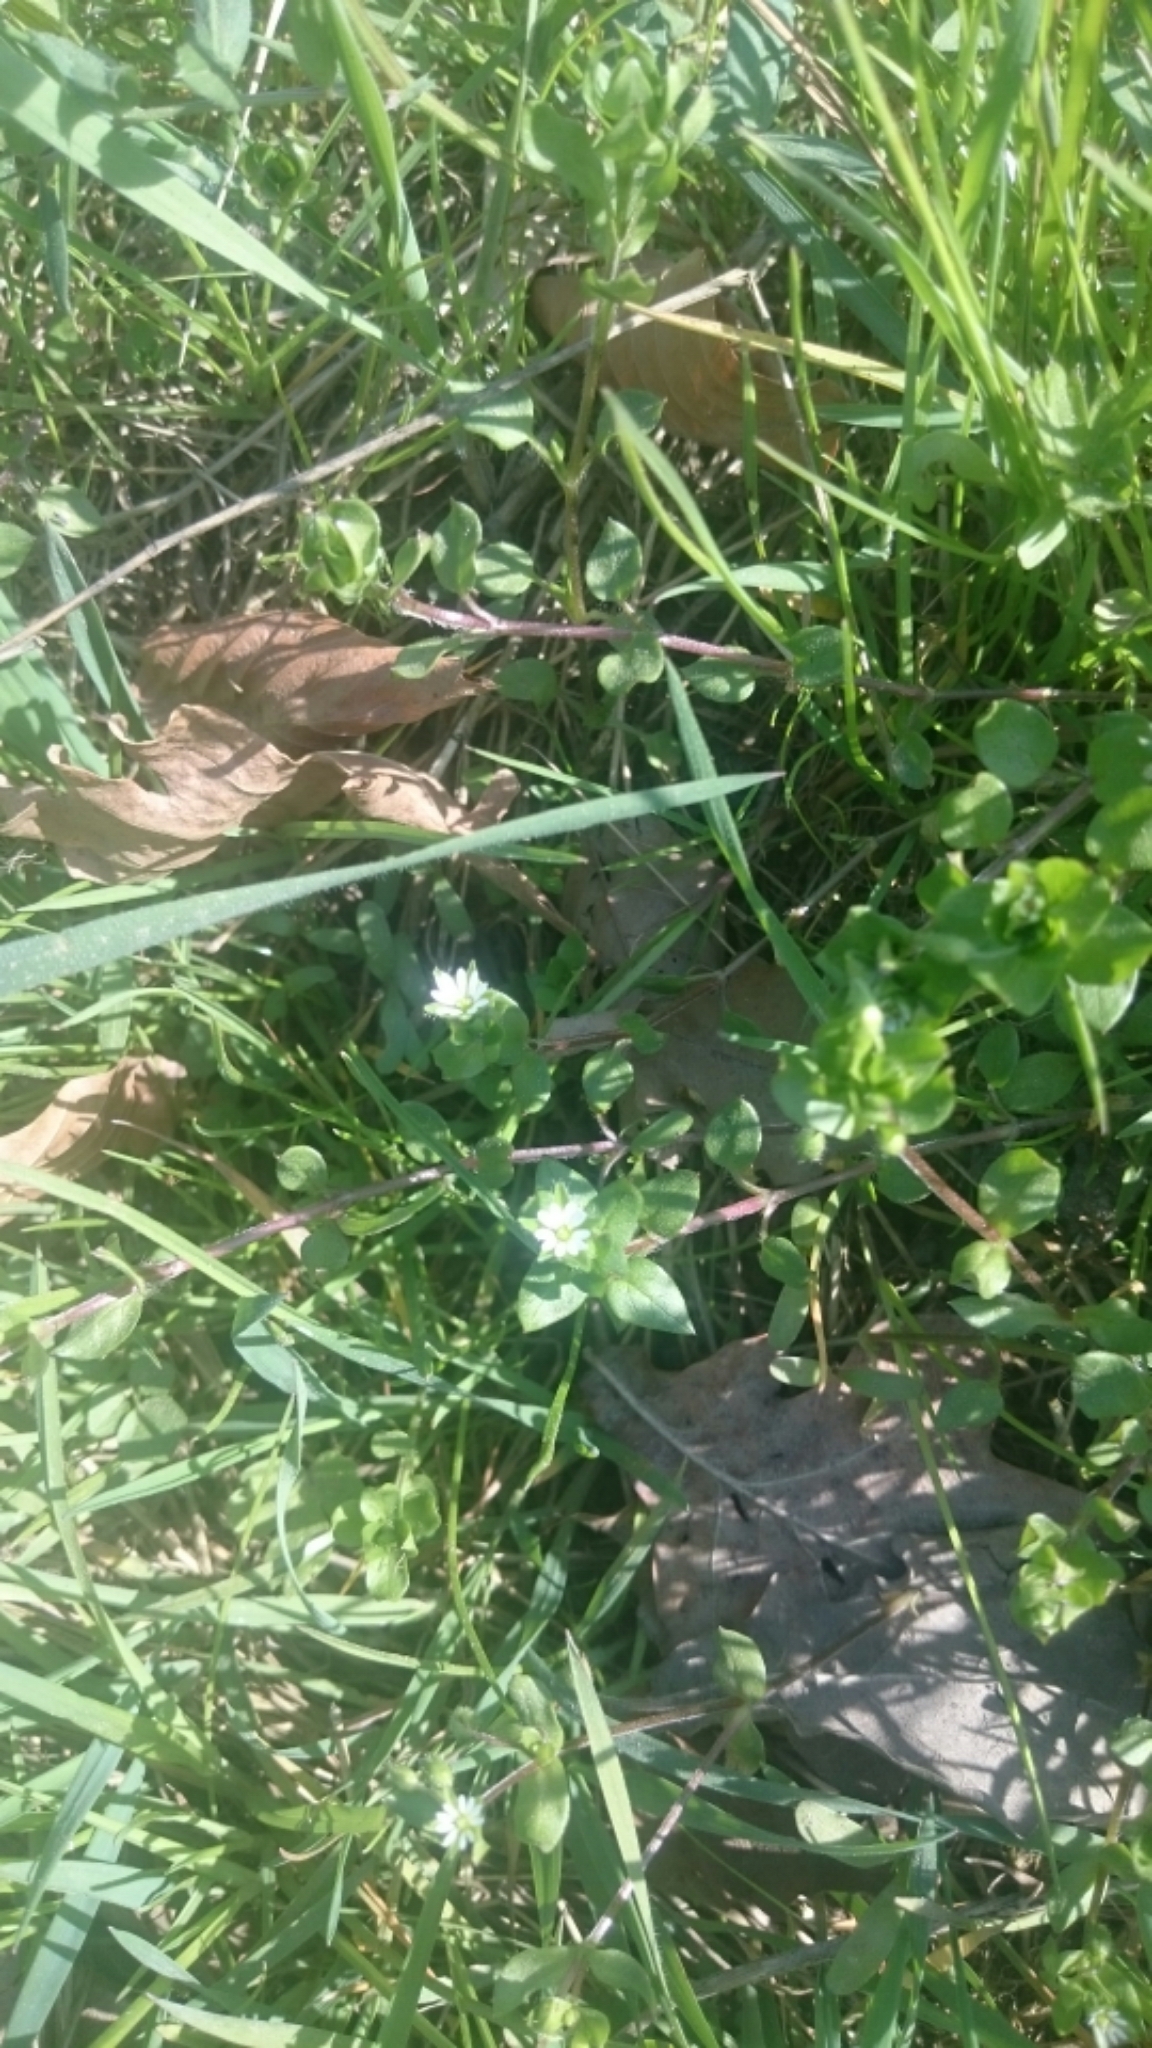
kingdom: Plantae
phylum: Tracheophyta
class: Magnoliopsida
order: Caryophyllales
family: Caryophyllaceae
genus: Stellaria
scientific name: Stellaria media
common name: Common chickweed
